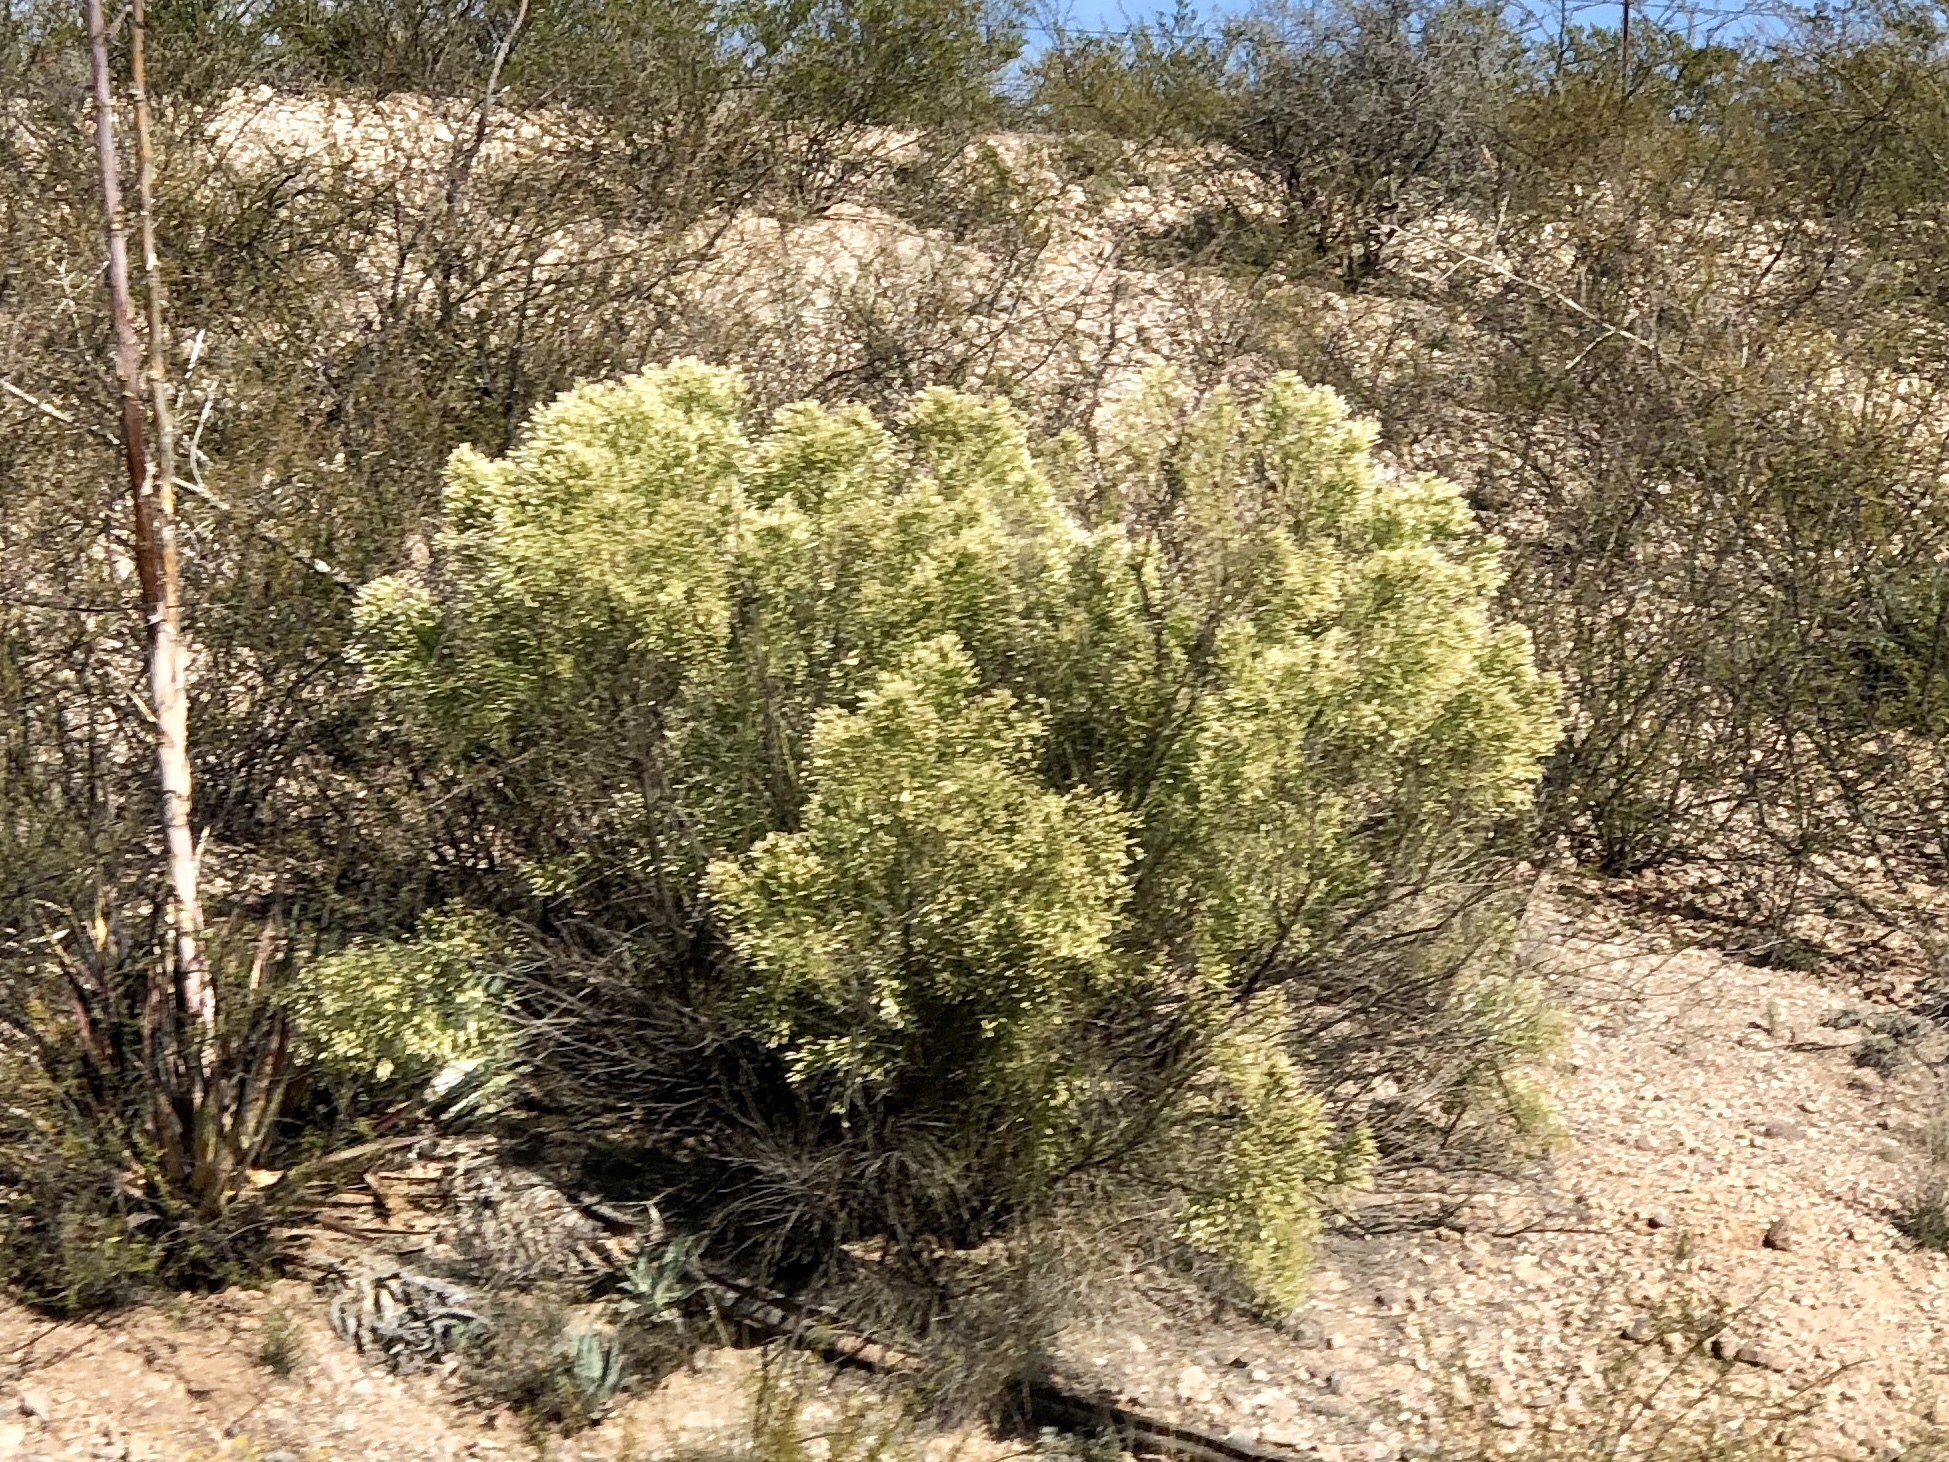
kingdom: Plantae
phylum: Tracheophyta
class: Magnoliopsida
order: Asterales
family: Asteraceae
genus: Baccharis
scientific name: Baccharis sarothroides
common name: Desert-broom
